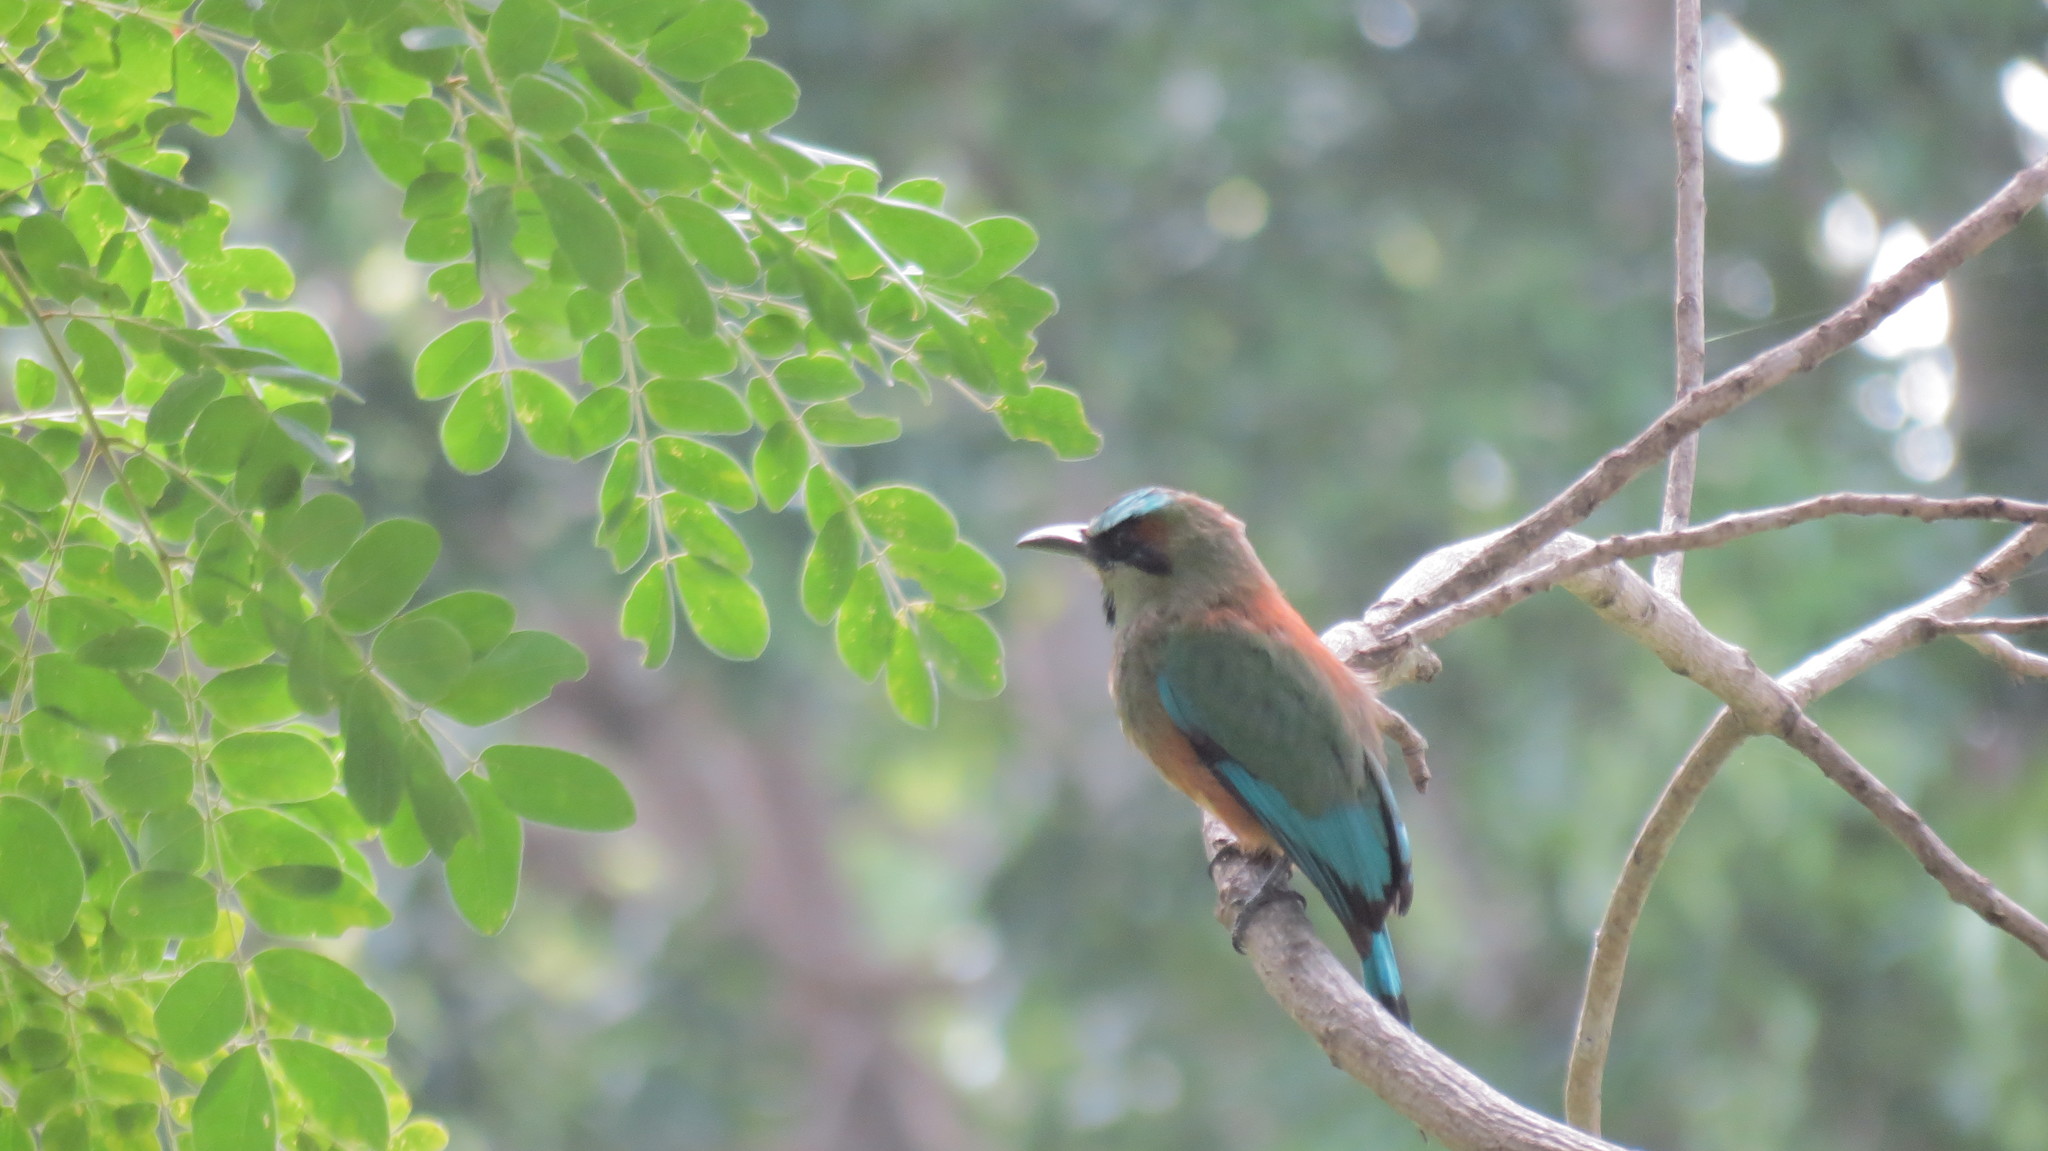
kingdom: Animalia
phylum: Chordata
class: Aves
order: Coraciiformes
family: Momotidae
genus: Eumomota
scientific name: Eumomota superciliosa
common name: Turquoise-browed motmot
